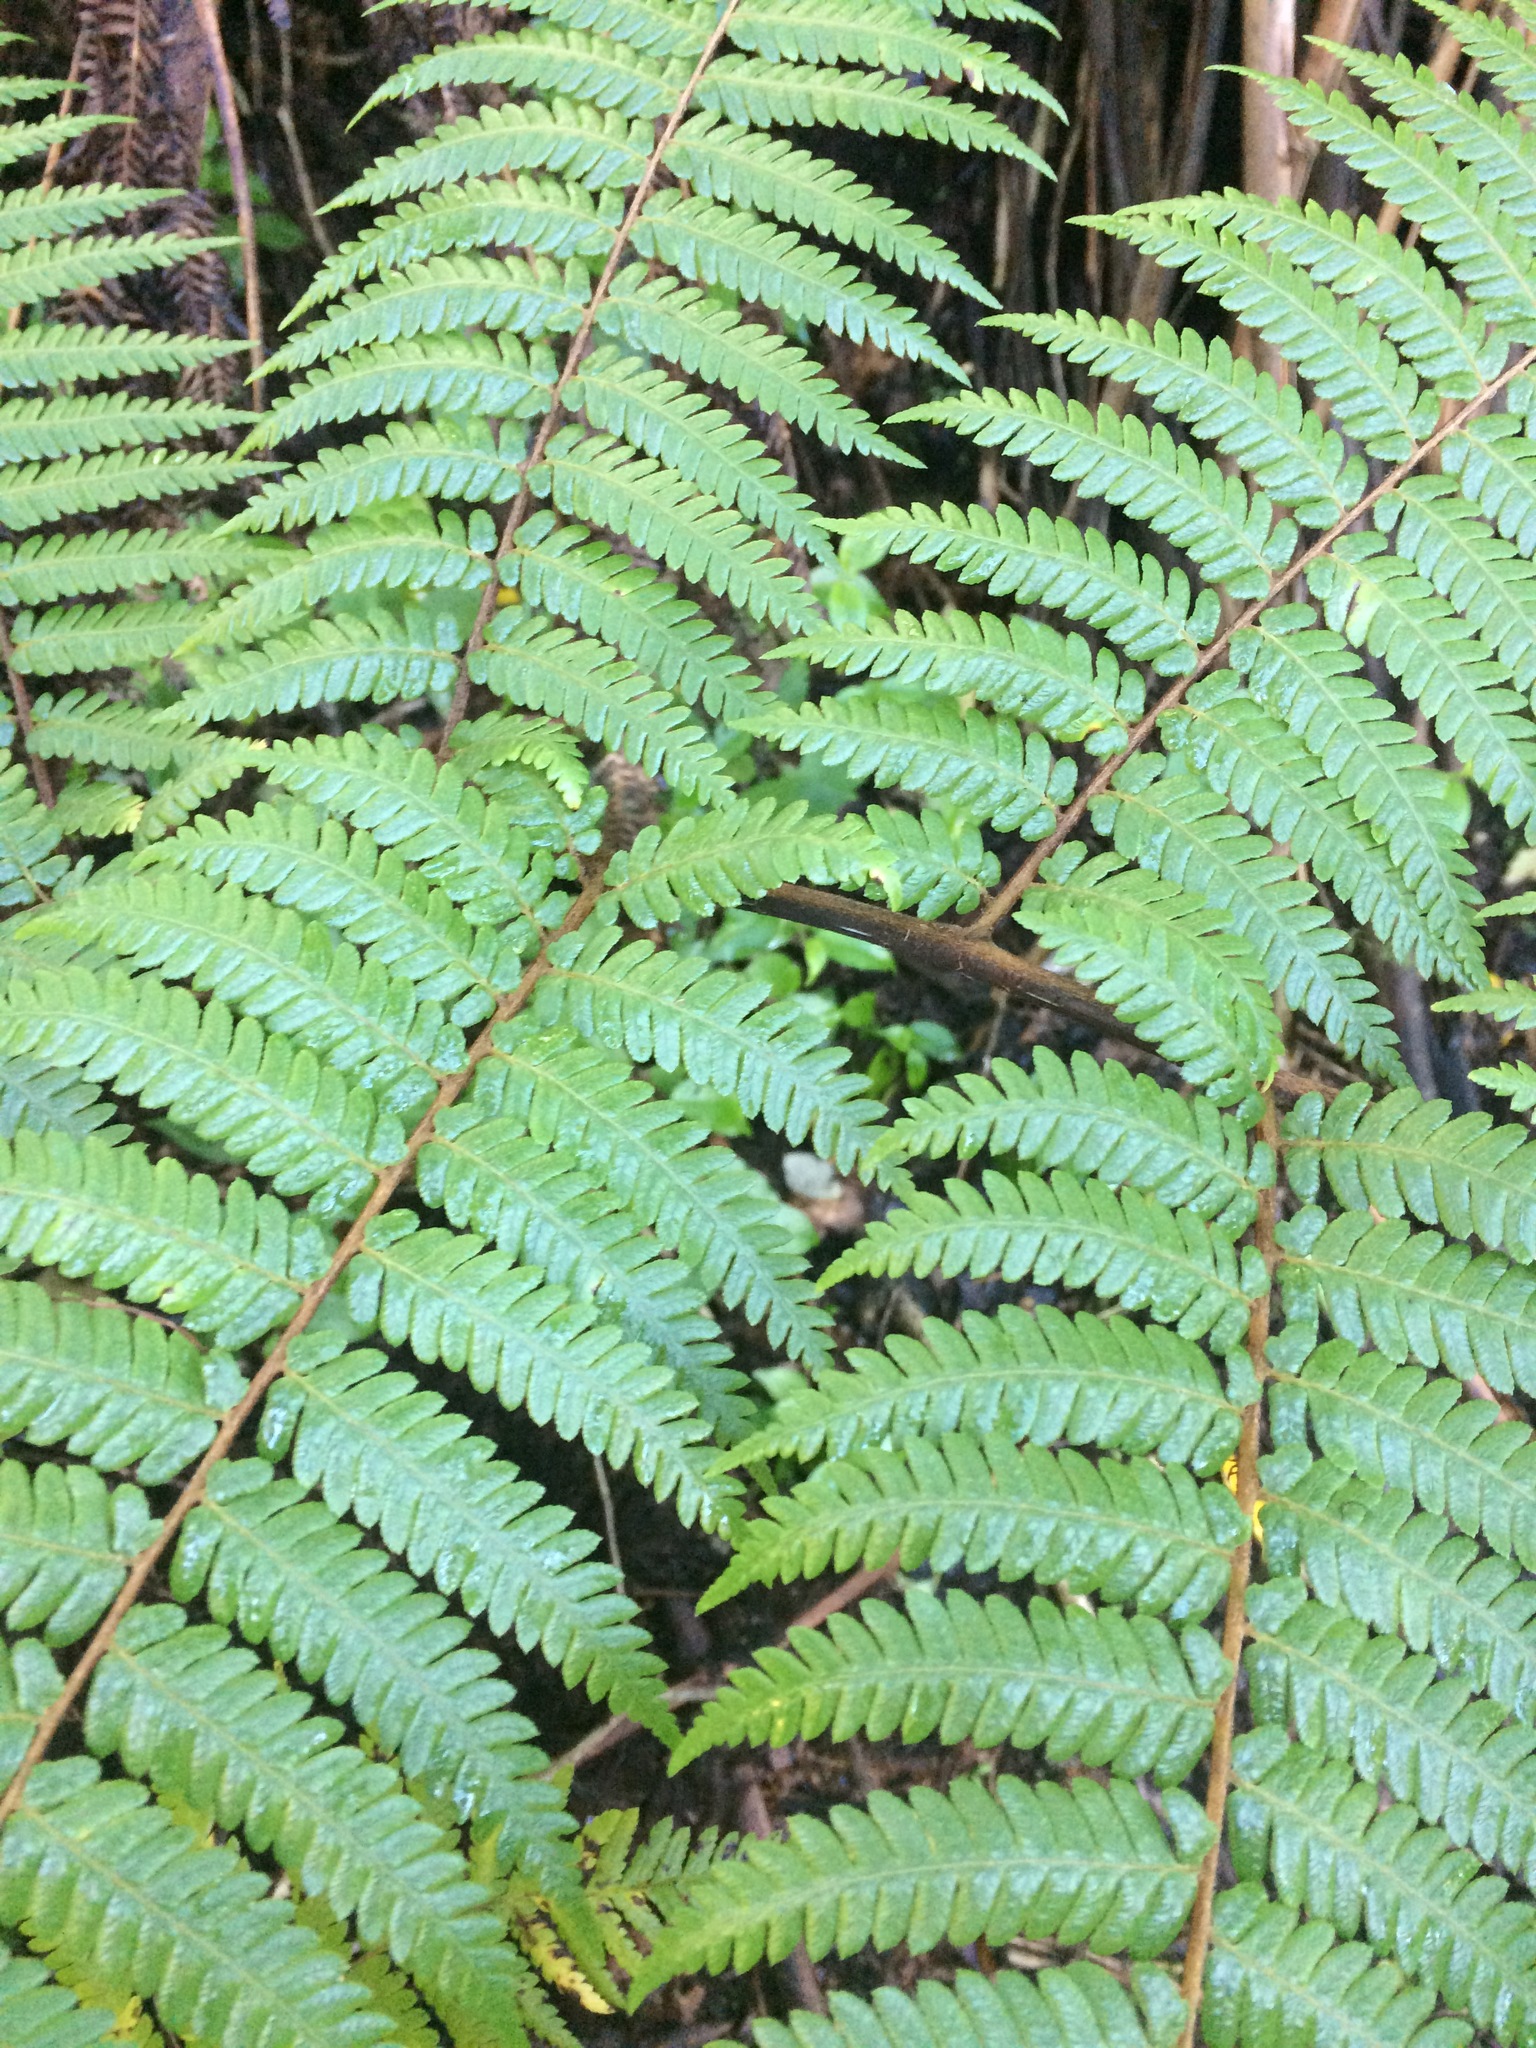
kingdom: Plantae
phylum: Tracheophyta
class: Polypodiopsida
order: Cyatheales
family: Cyatheaceae
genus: Sphaeropteris
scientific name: Sphaeropteris medullaris
